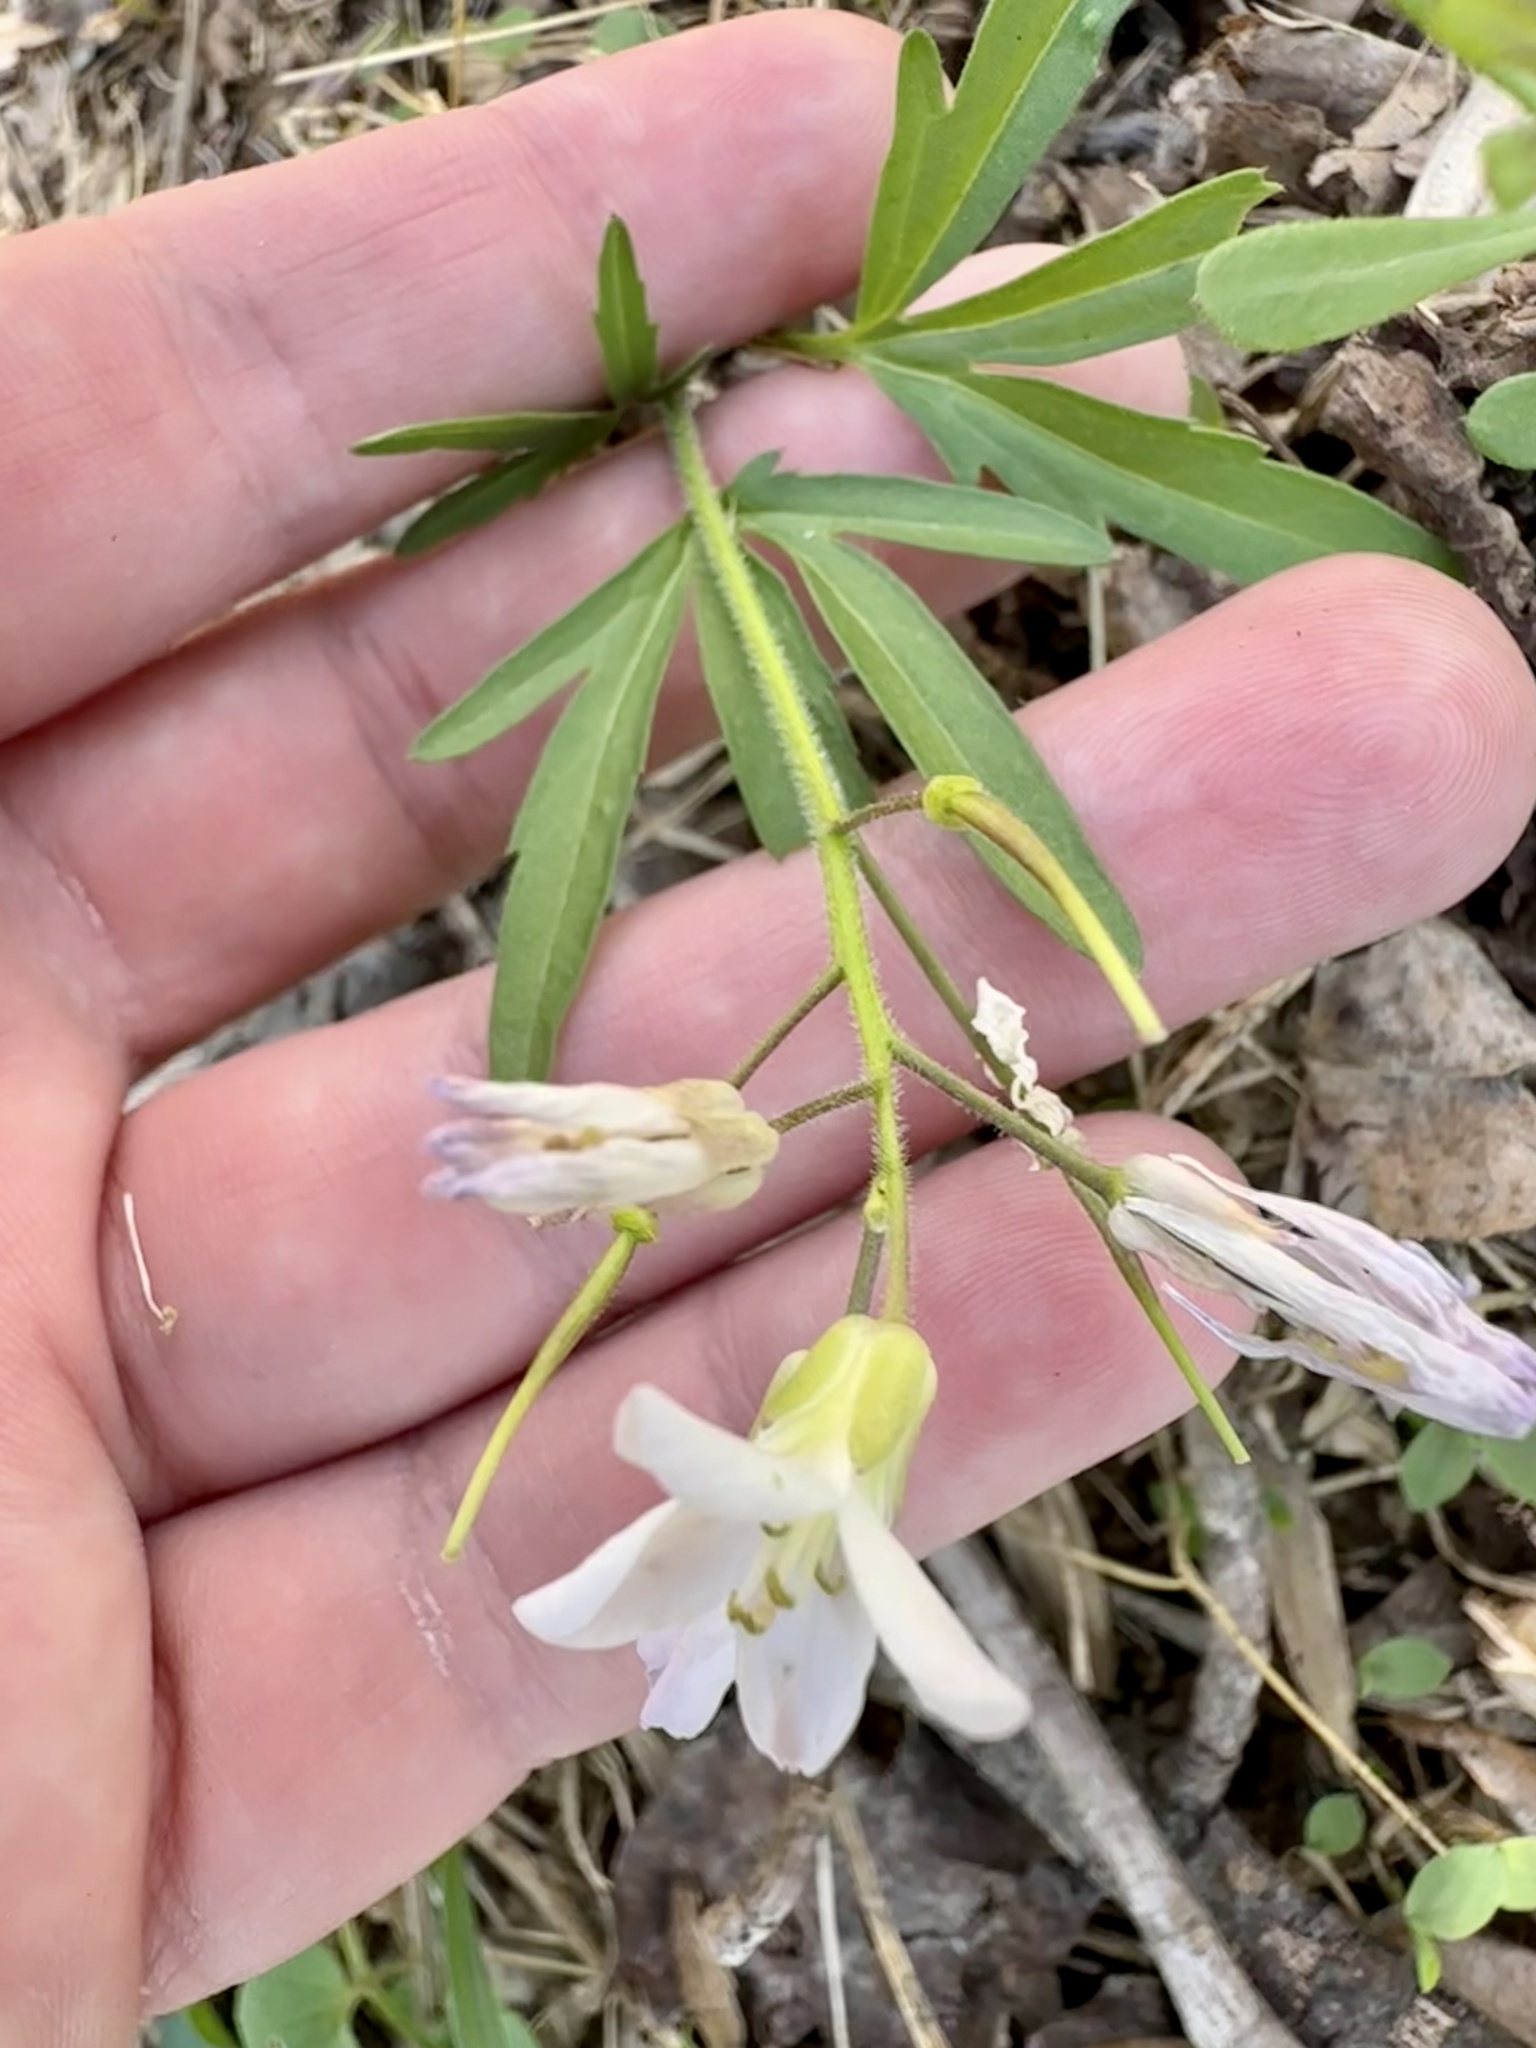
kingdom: Plantae
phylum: Tracheophyta
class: Magnoliopsida
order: Brassicales
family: Brassicaceae
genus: Cardamine
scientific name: Cardamine concatenata
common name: Cut-leaf toothcup
